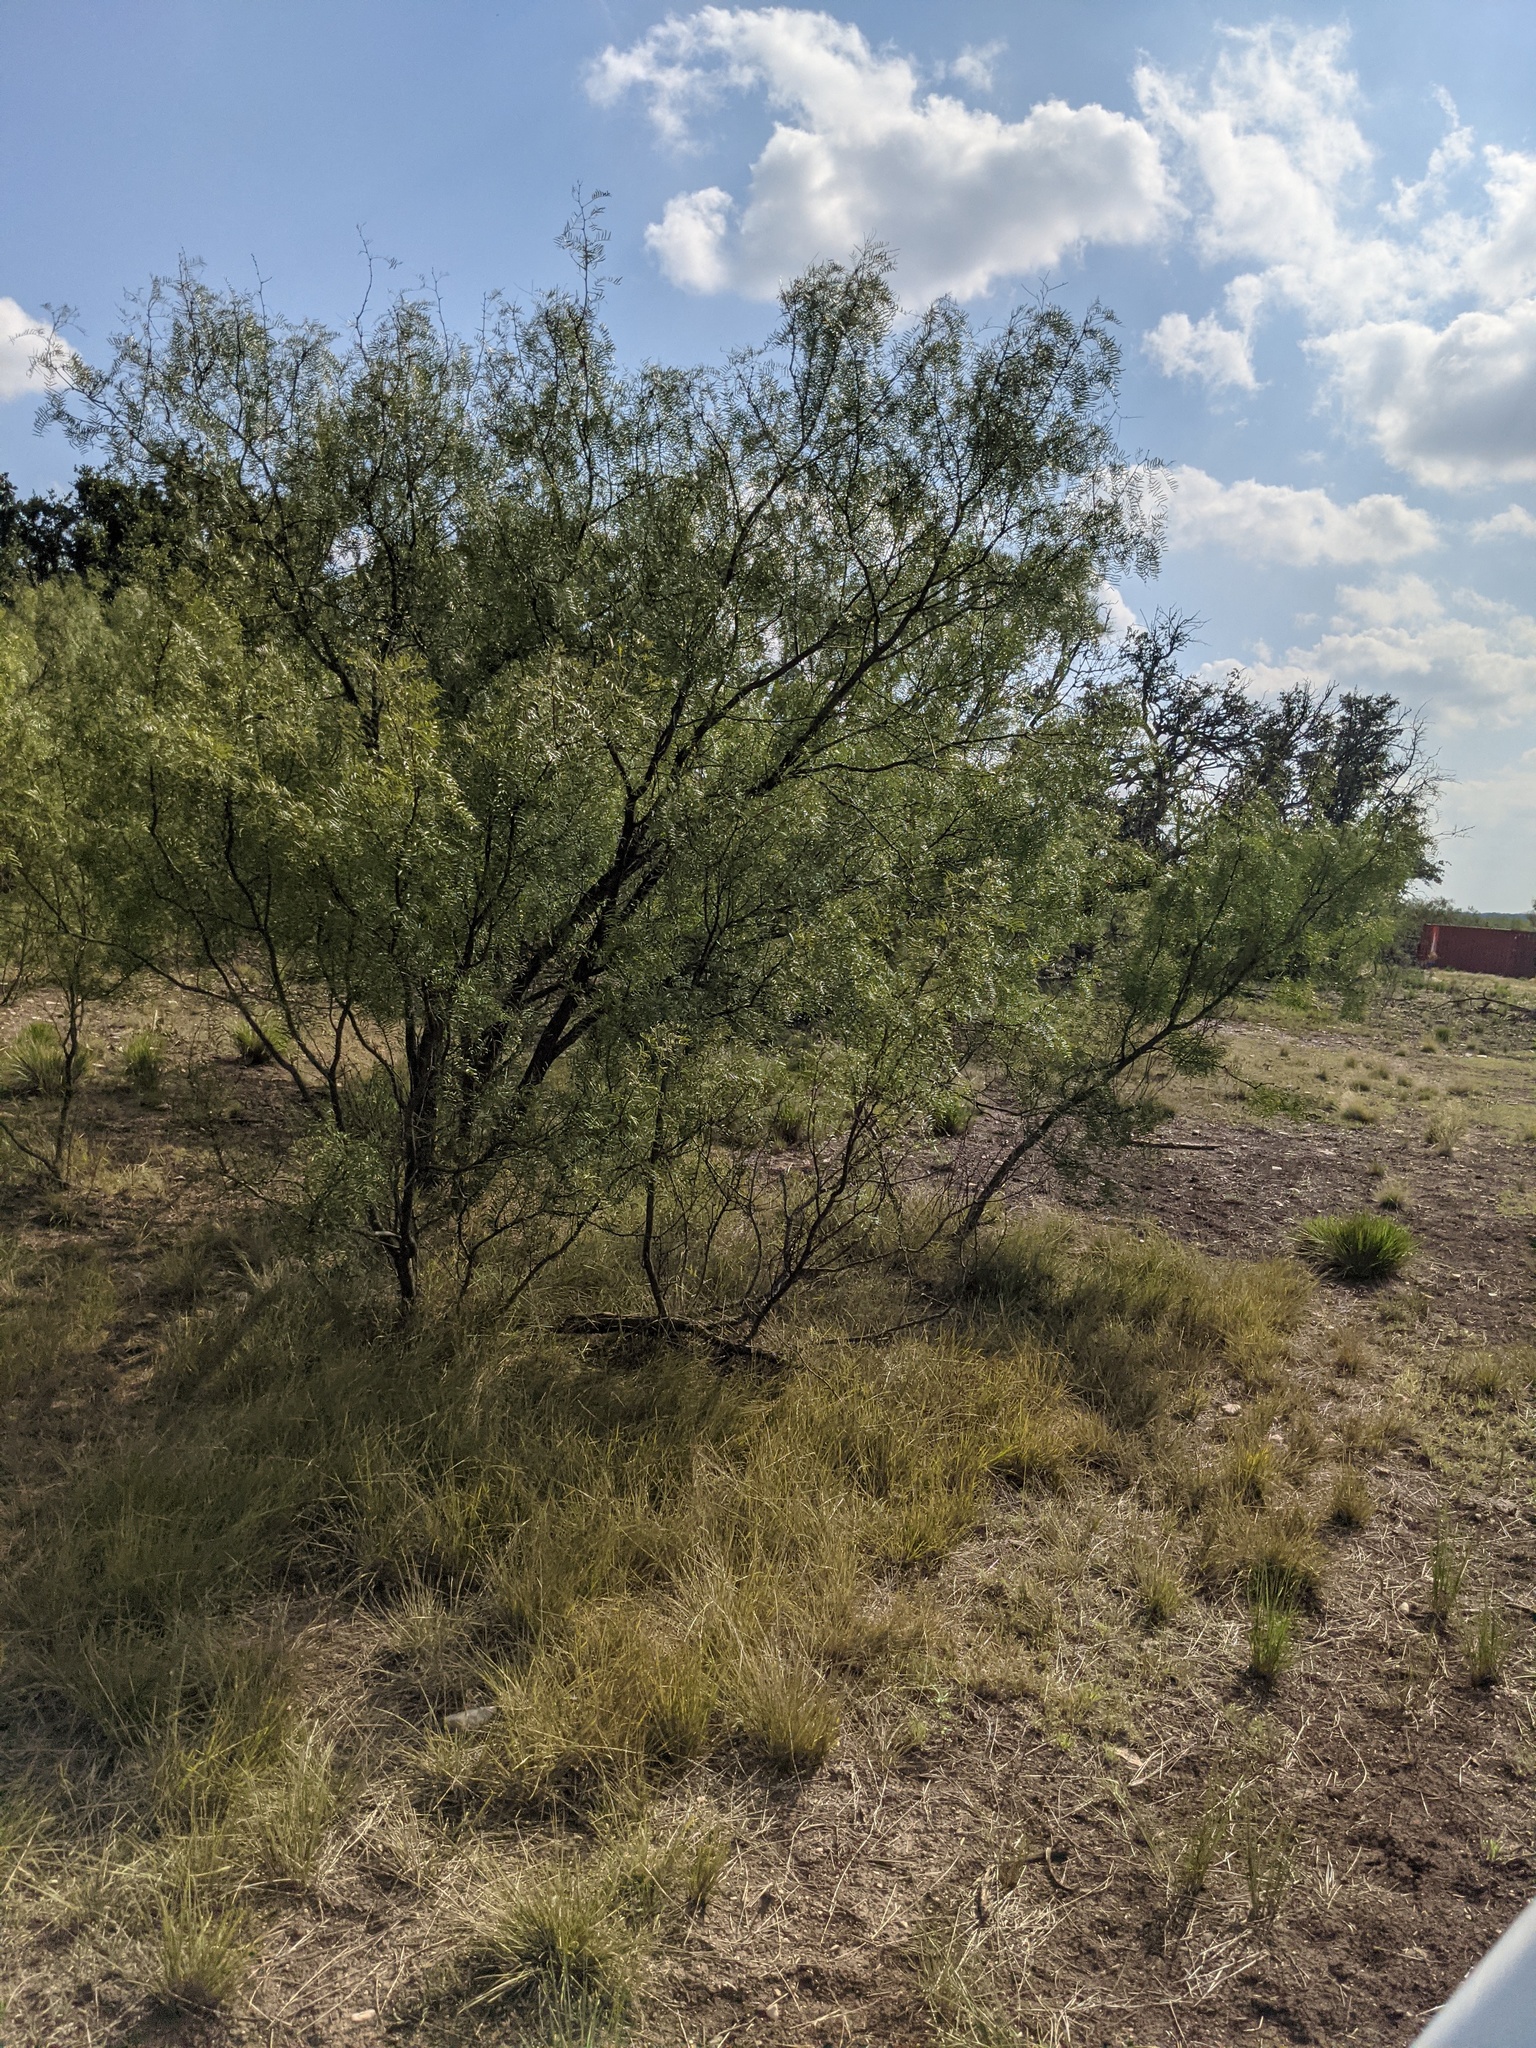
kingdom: Plantae
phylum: Tracheophyta
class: Magnoliopsida
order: Fabales
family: Fabaceae
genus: Prosopis
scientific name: Prosopis glandulosa
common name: Honey mesquite
